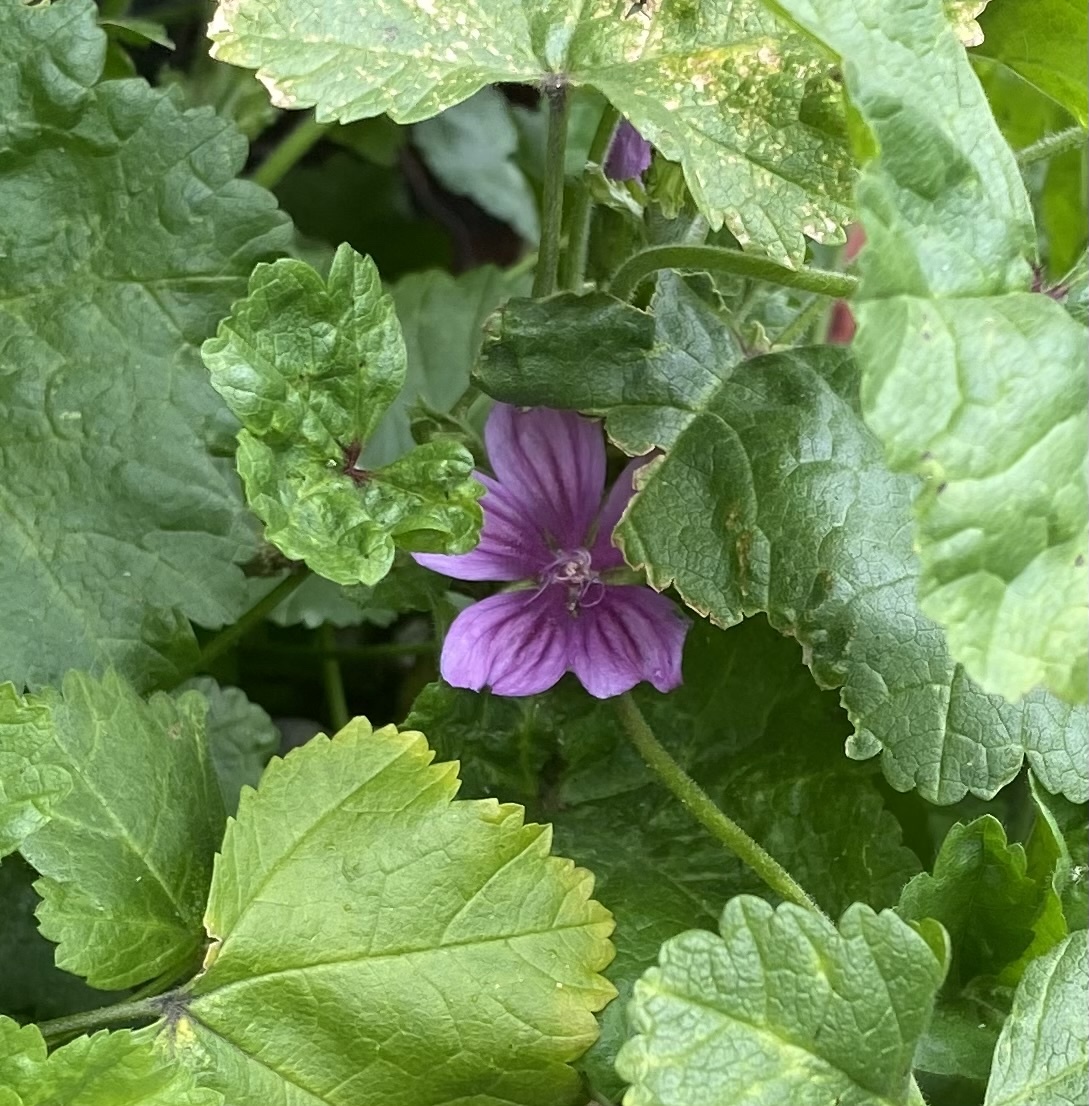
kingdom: Plantae
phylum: Tracheophyta
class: Magnoliopsida
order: Malvales
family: Malvaceae
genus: Malva
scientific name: Malva sylvestris
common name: Common mallow
